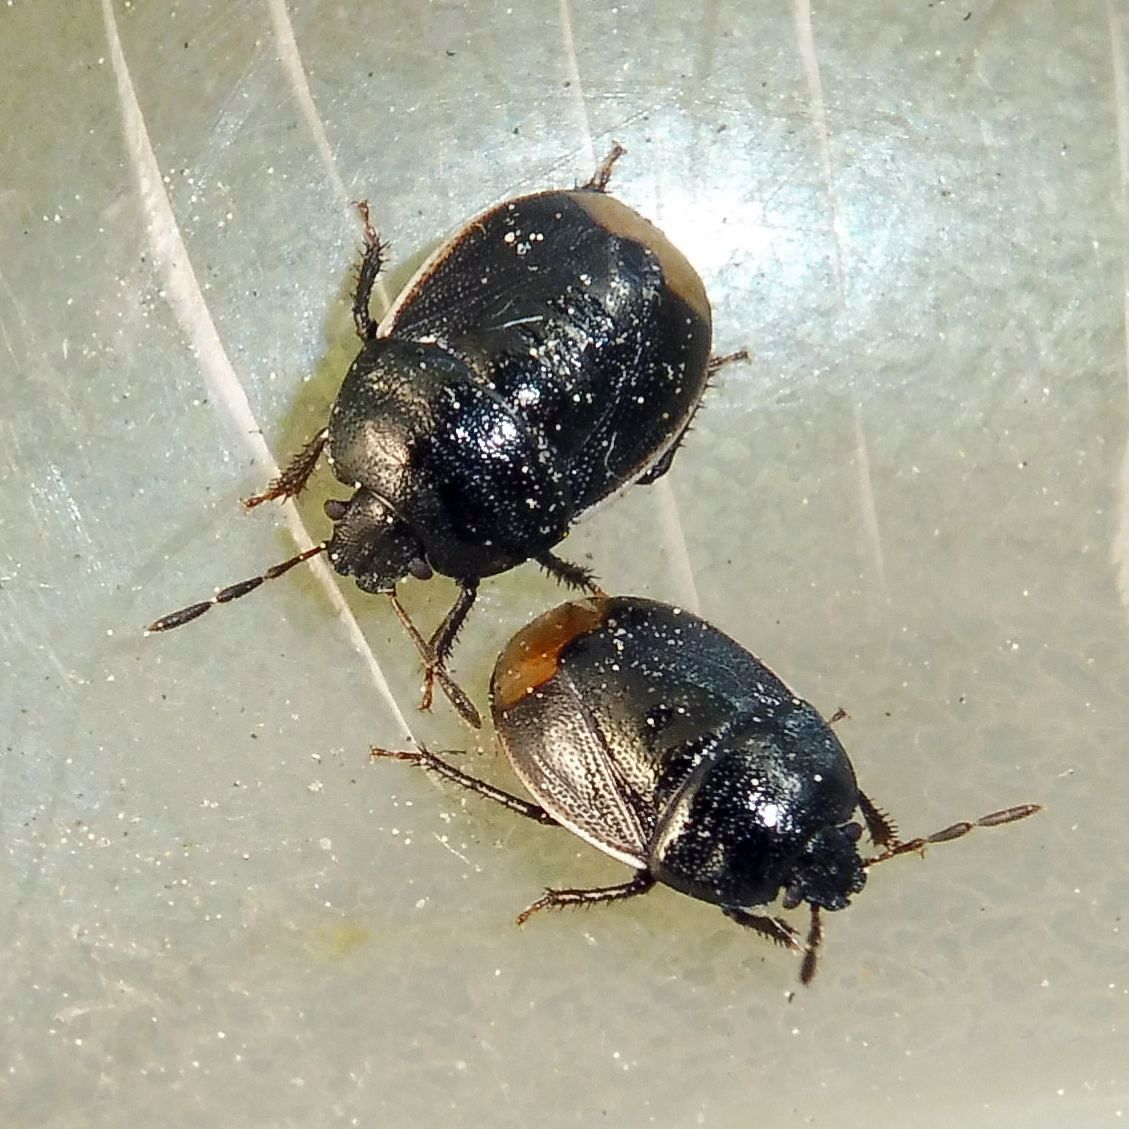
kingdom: Animalia
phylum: Arthropoda
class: Insecta
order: Hemiptera
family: Cydnidae
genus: Legnotus
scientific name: Legnotus limbosus
